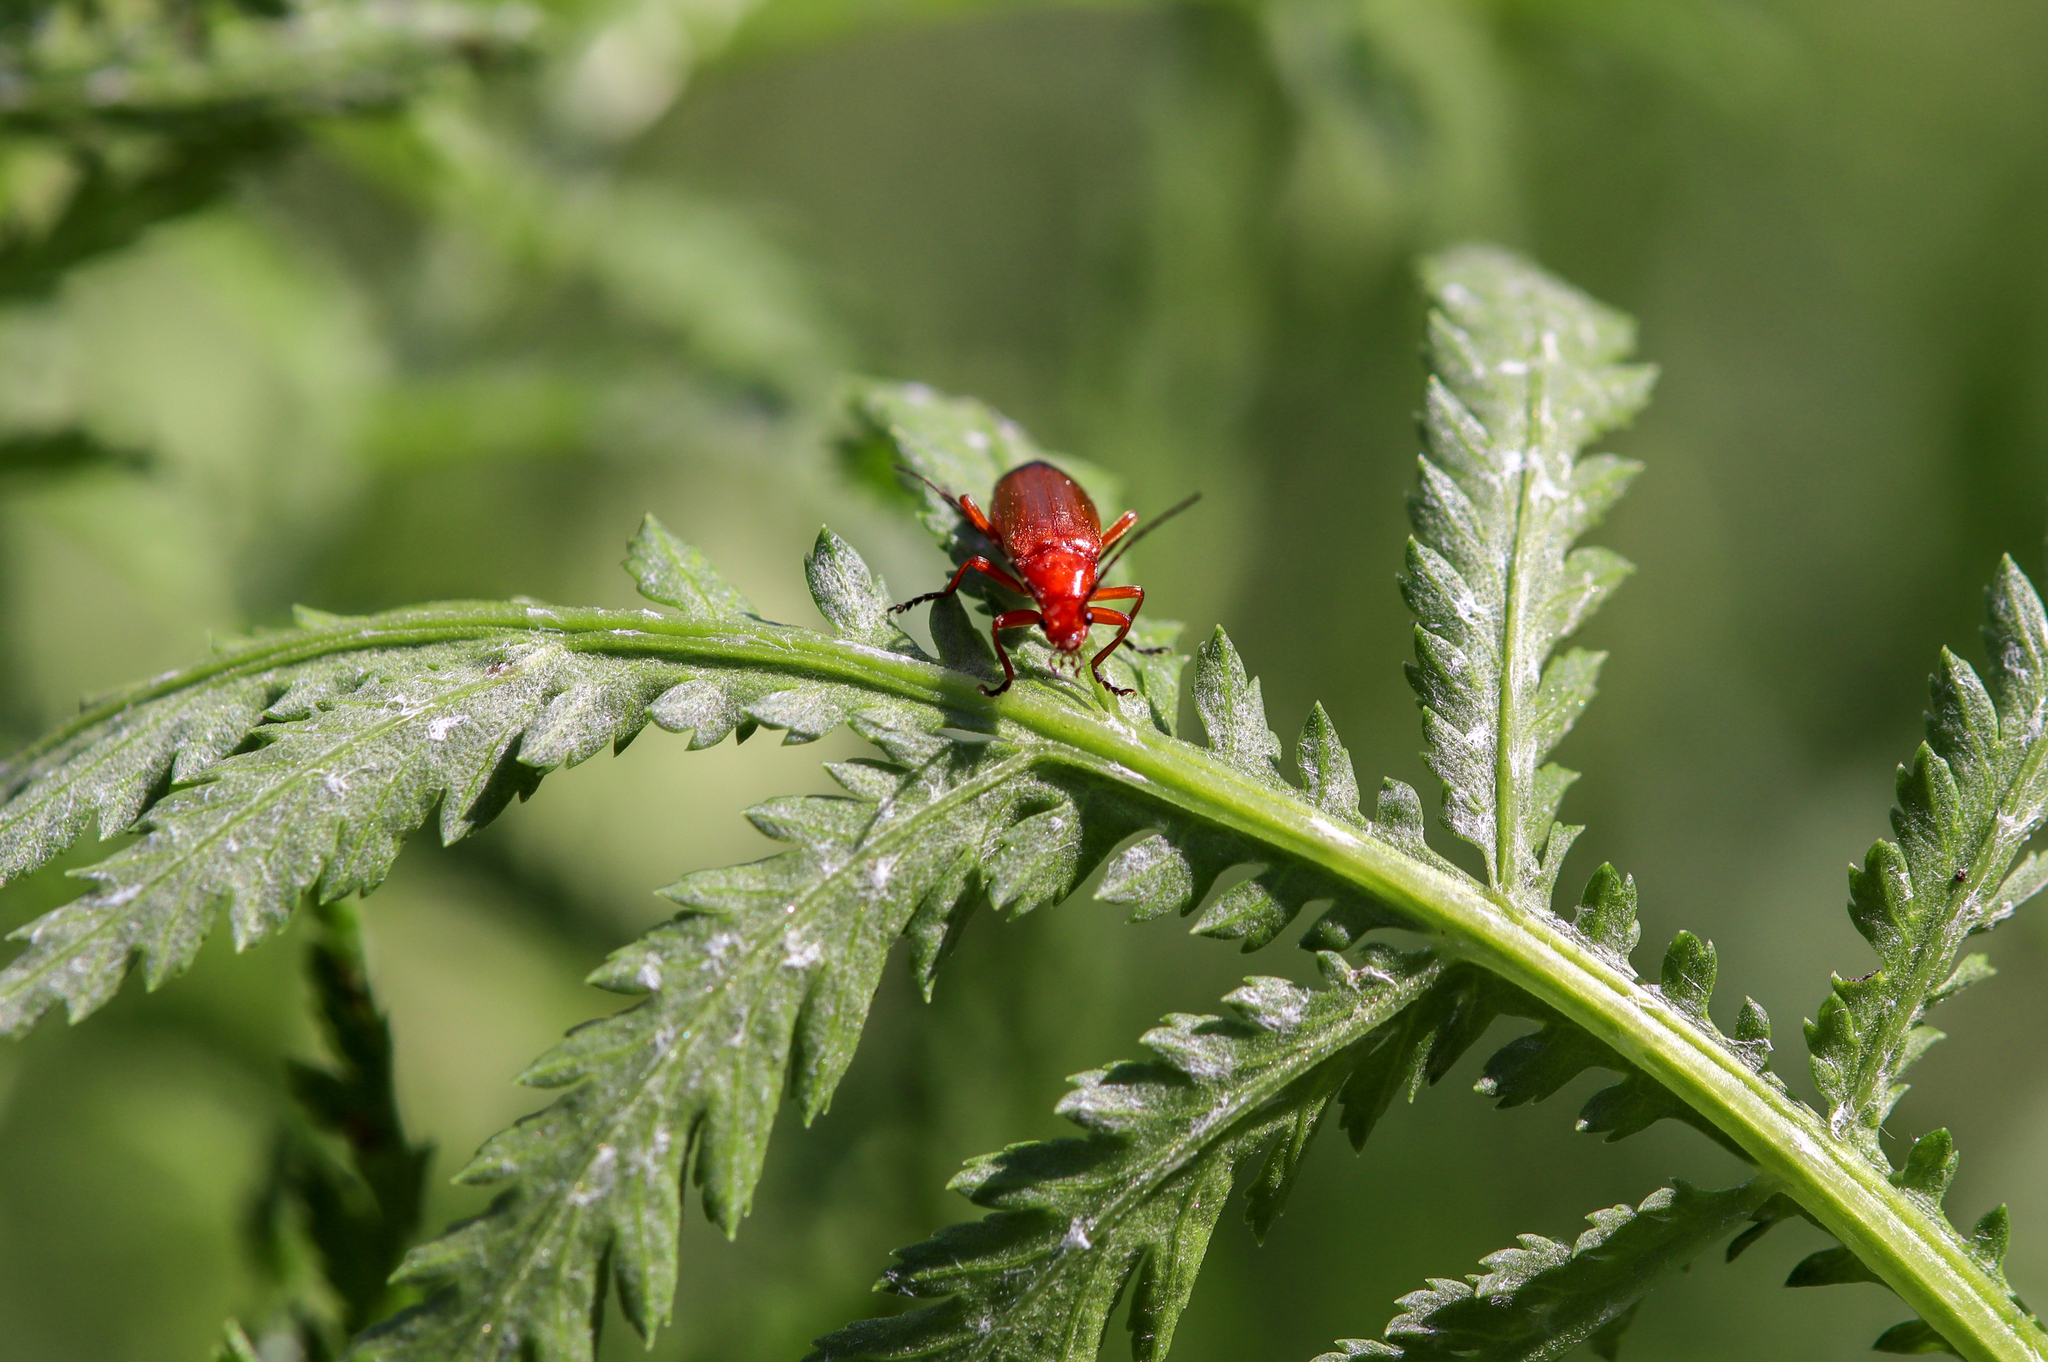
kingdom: Animalia
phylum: Arthropoda
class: Insecta
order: Coleoptera
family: Cantharidae
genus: Rhagonycha
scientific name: Rhagonycha fulva
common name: Common red soldier beetle
